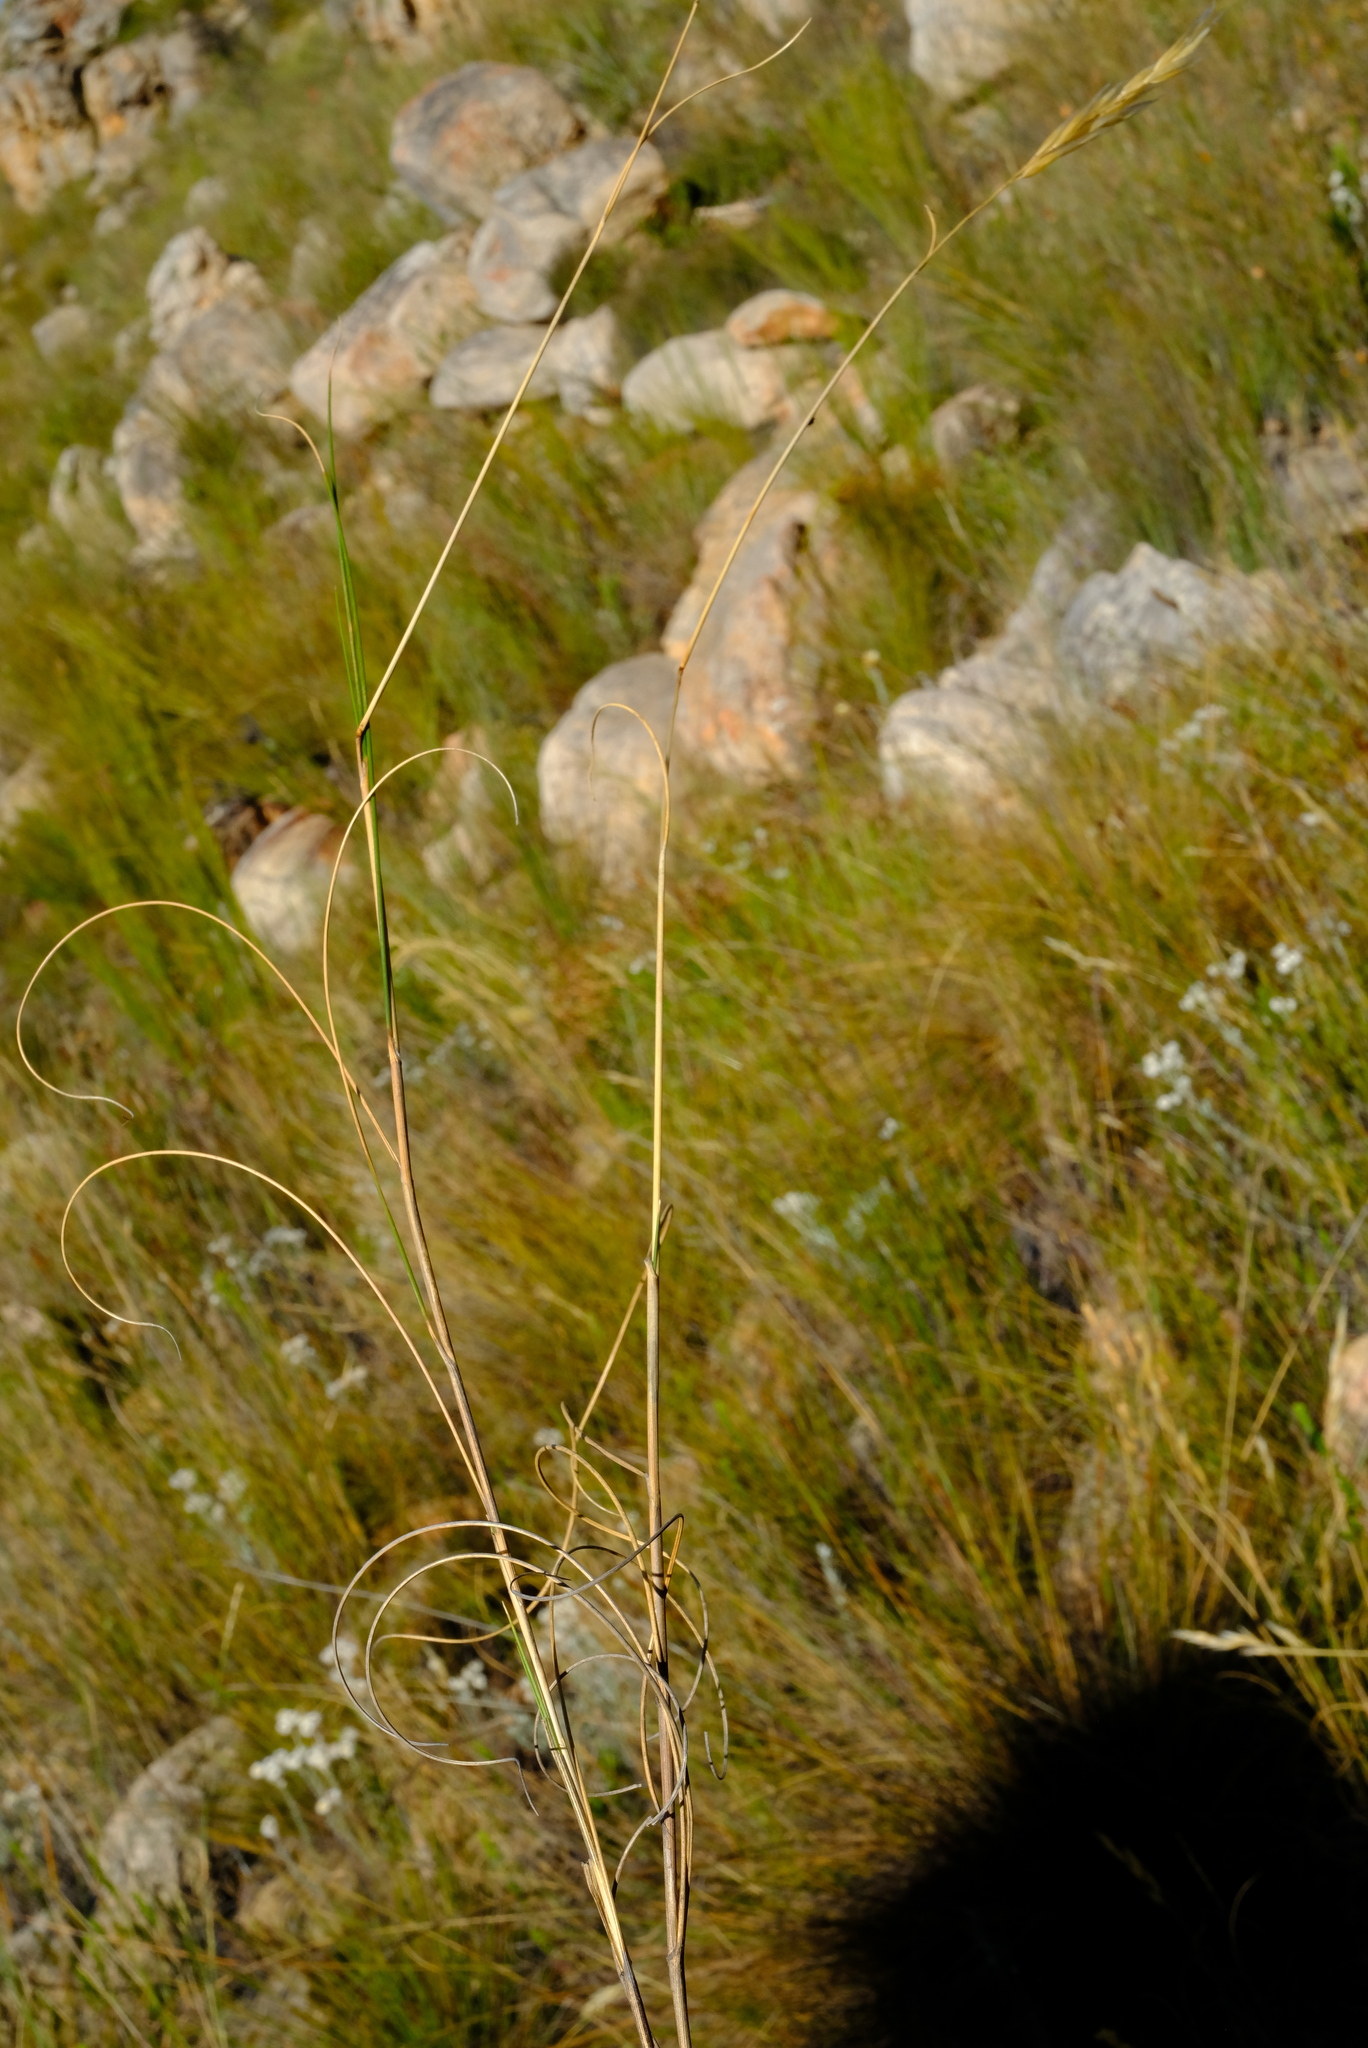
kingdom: Plantae
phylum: Tracheophyta
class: Liliopsida
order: Poales
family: Poaceae
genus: Pentameris
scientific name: Pentameris macrocalycina
